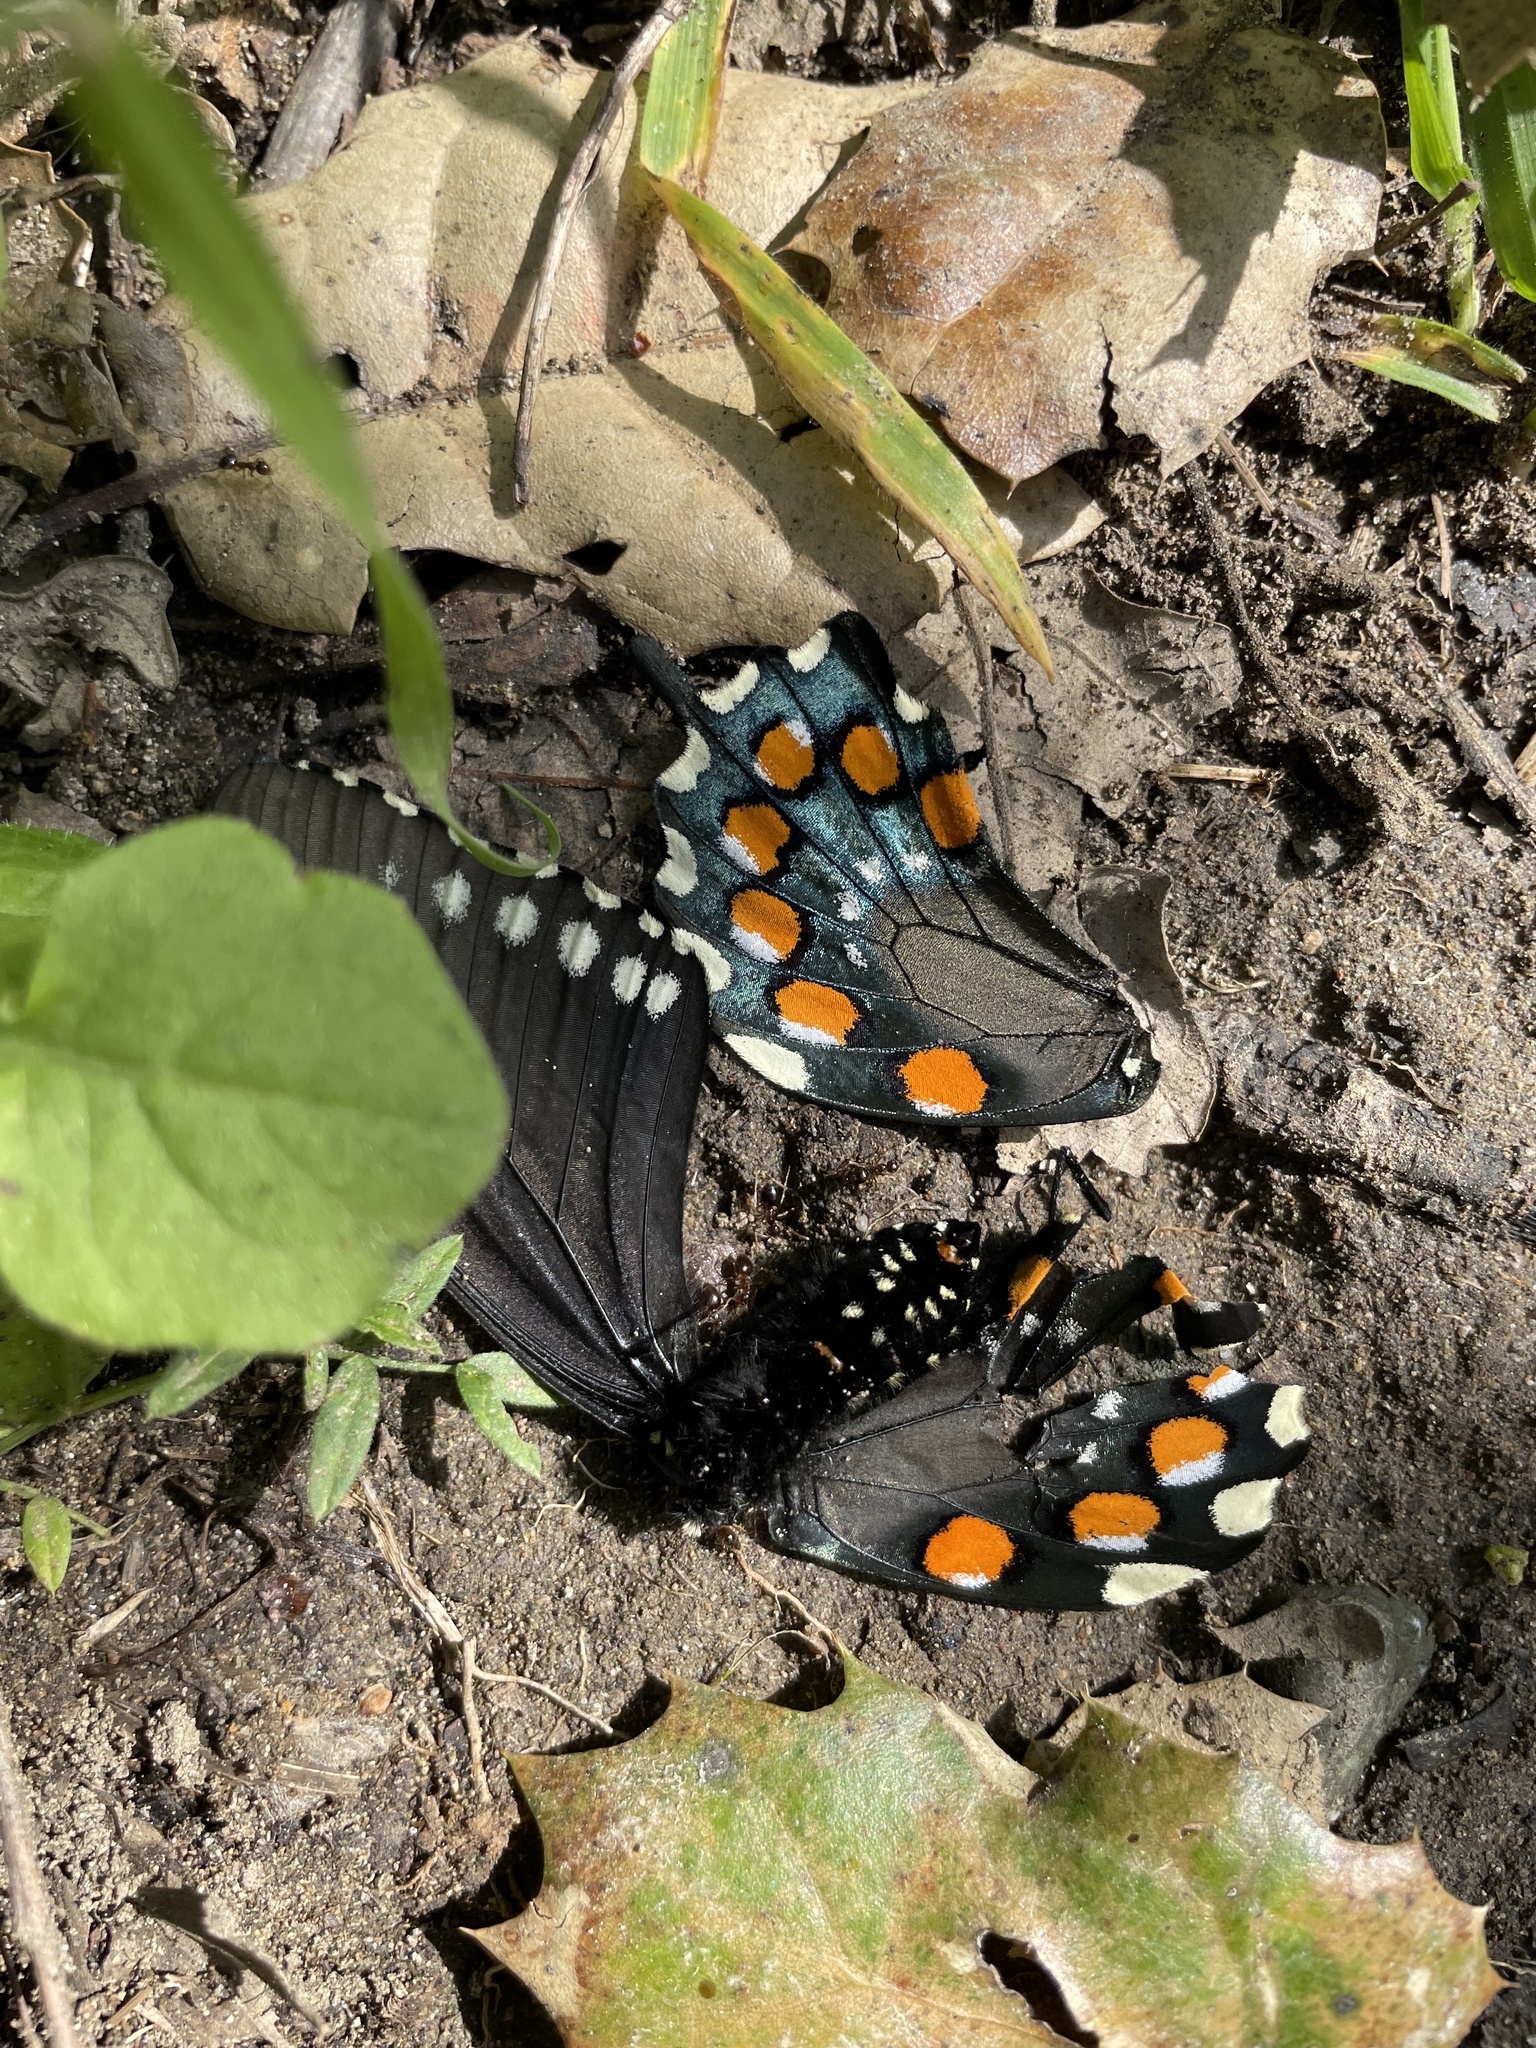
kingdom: Animalia
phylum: Arthropoda
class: Insecta
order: Lepidoptera
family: Papilionidae
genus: Battus
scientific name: Battus philenor
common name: Pipevine swallowtail
